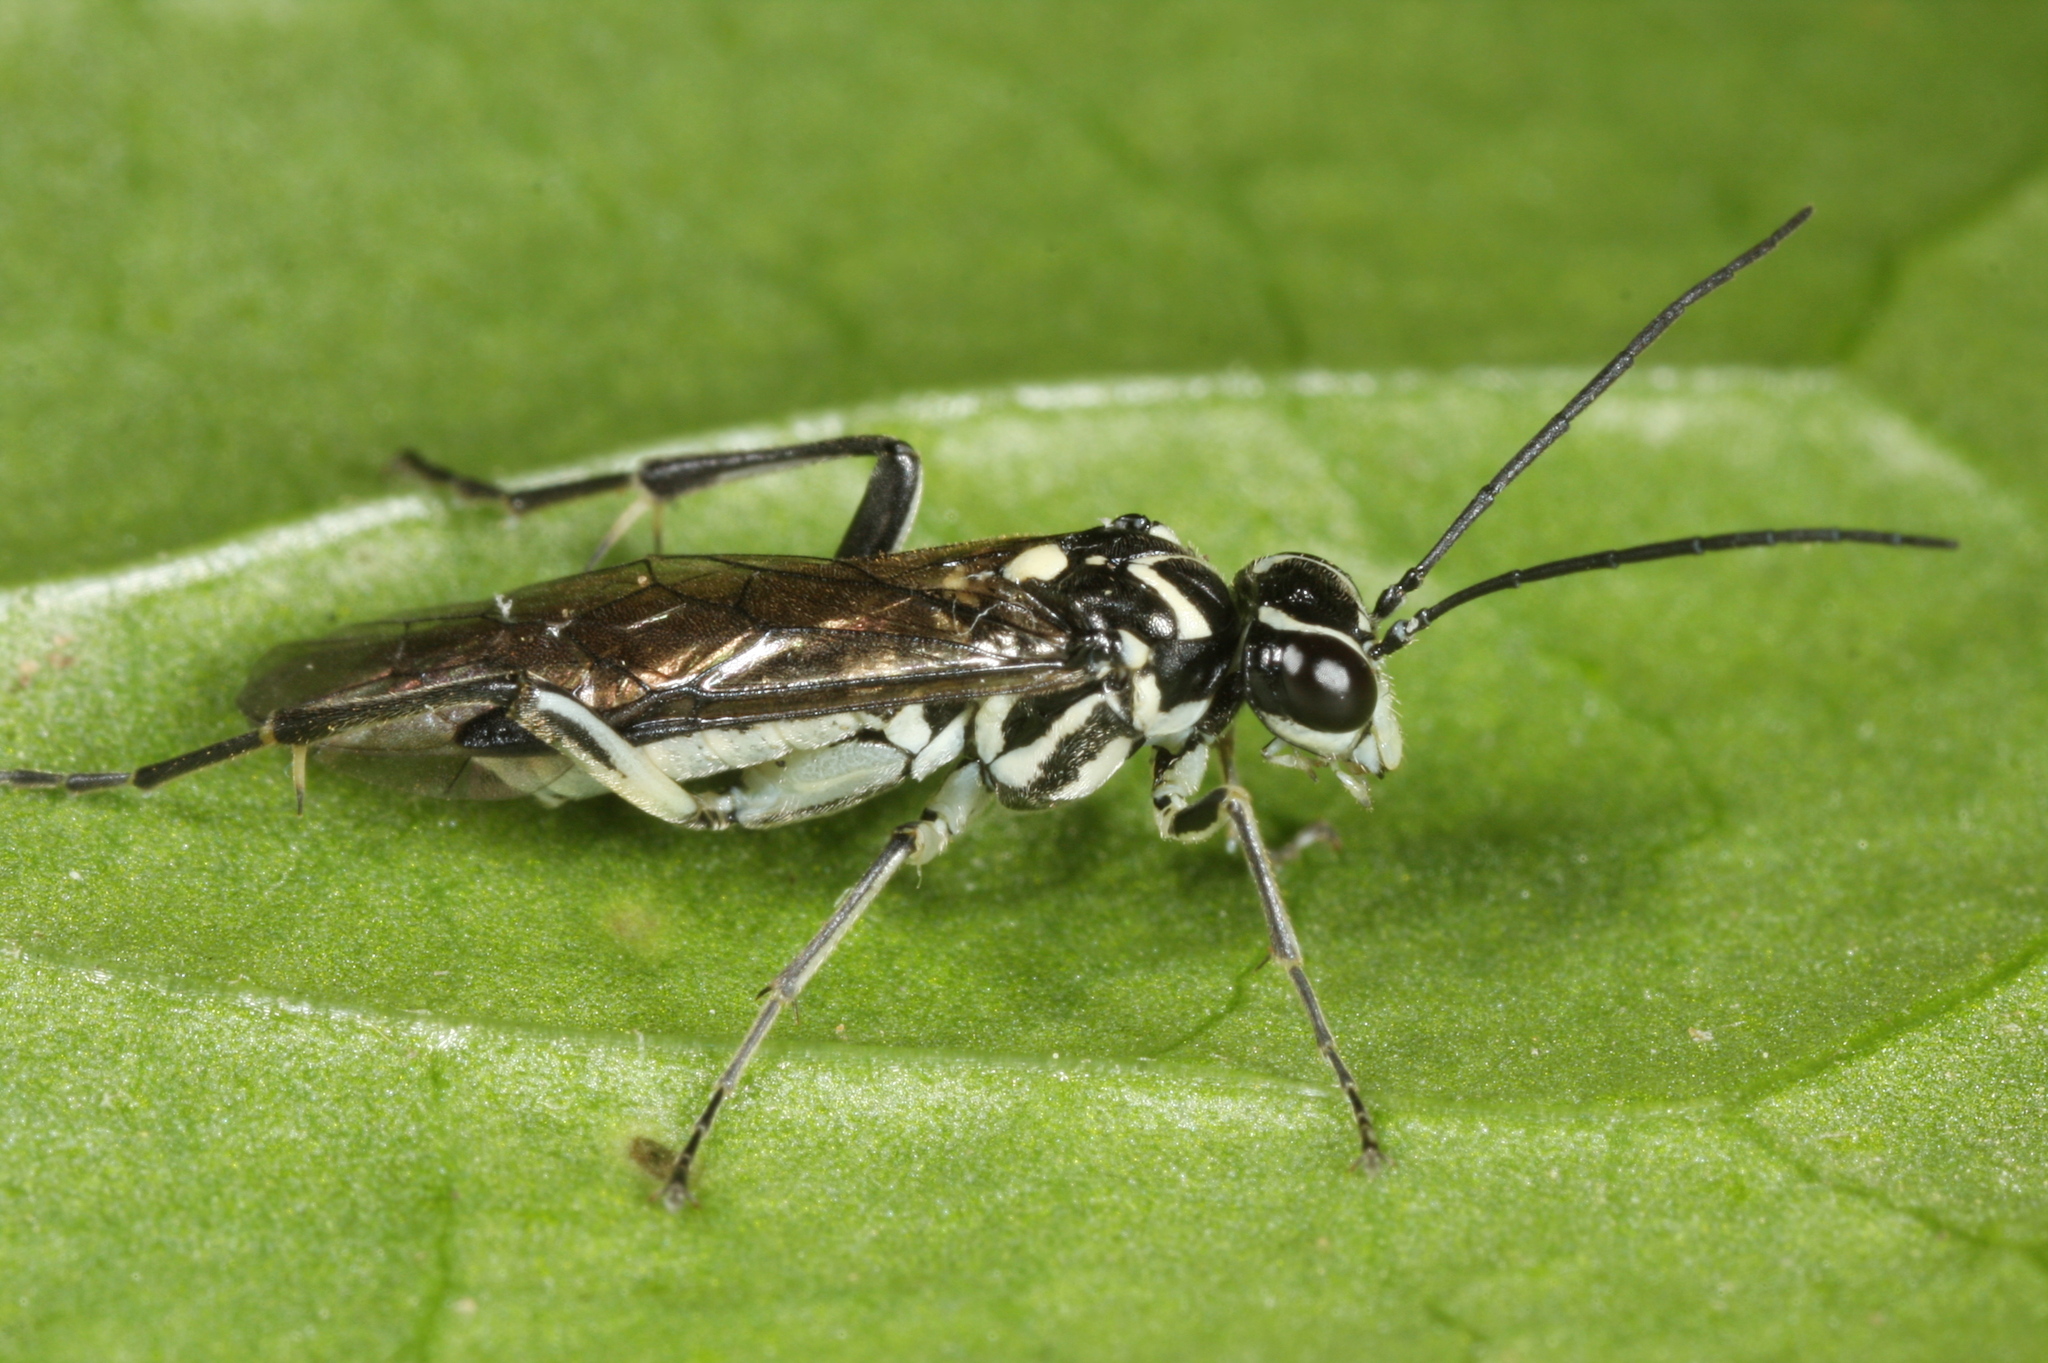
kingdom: Animalia
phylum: Arthropoda
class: Insecta
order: Hymenoptera
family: Tenthredinidae
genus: Pachyprotasis
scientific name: Pachyprotasis rapae
